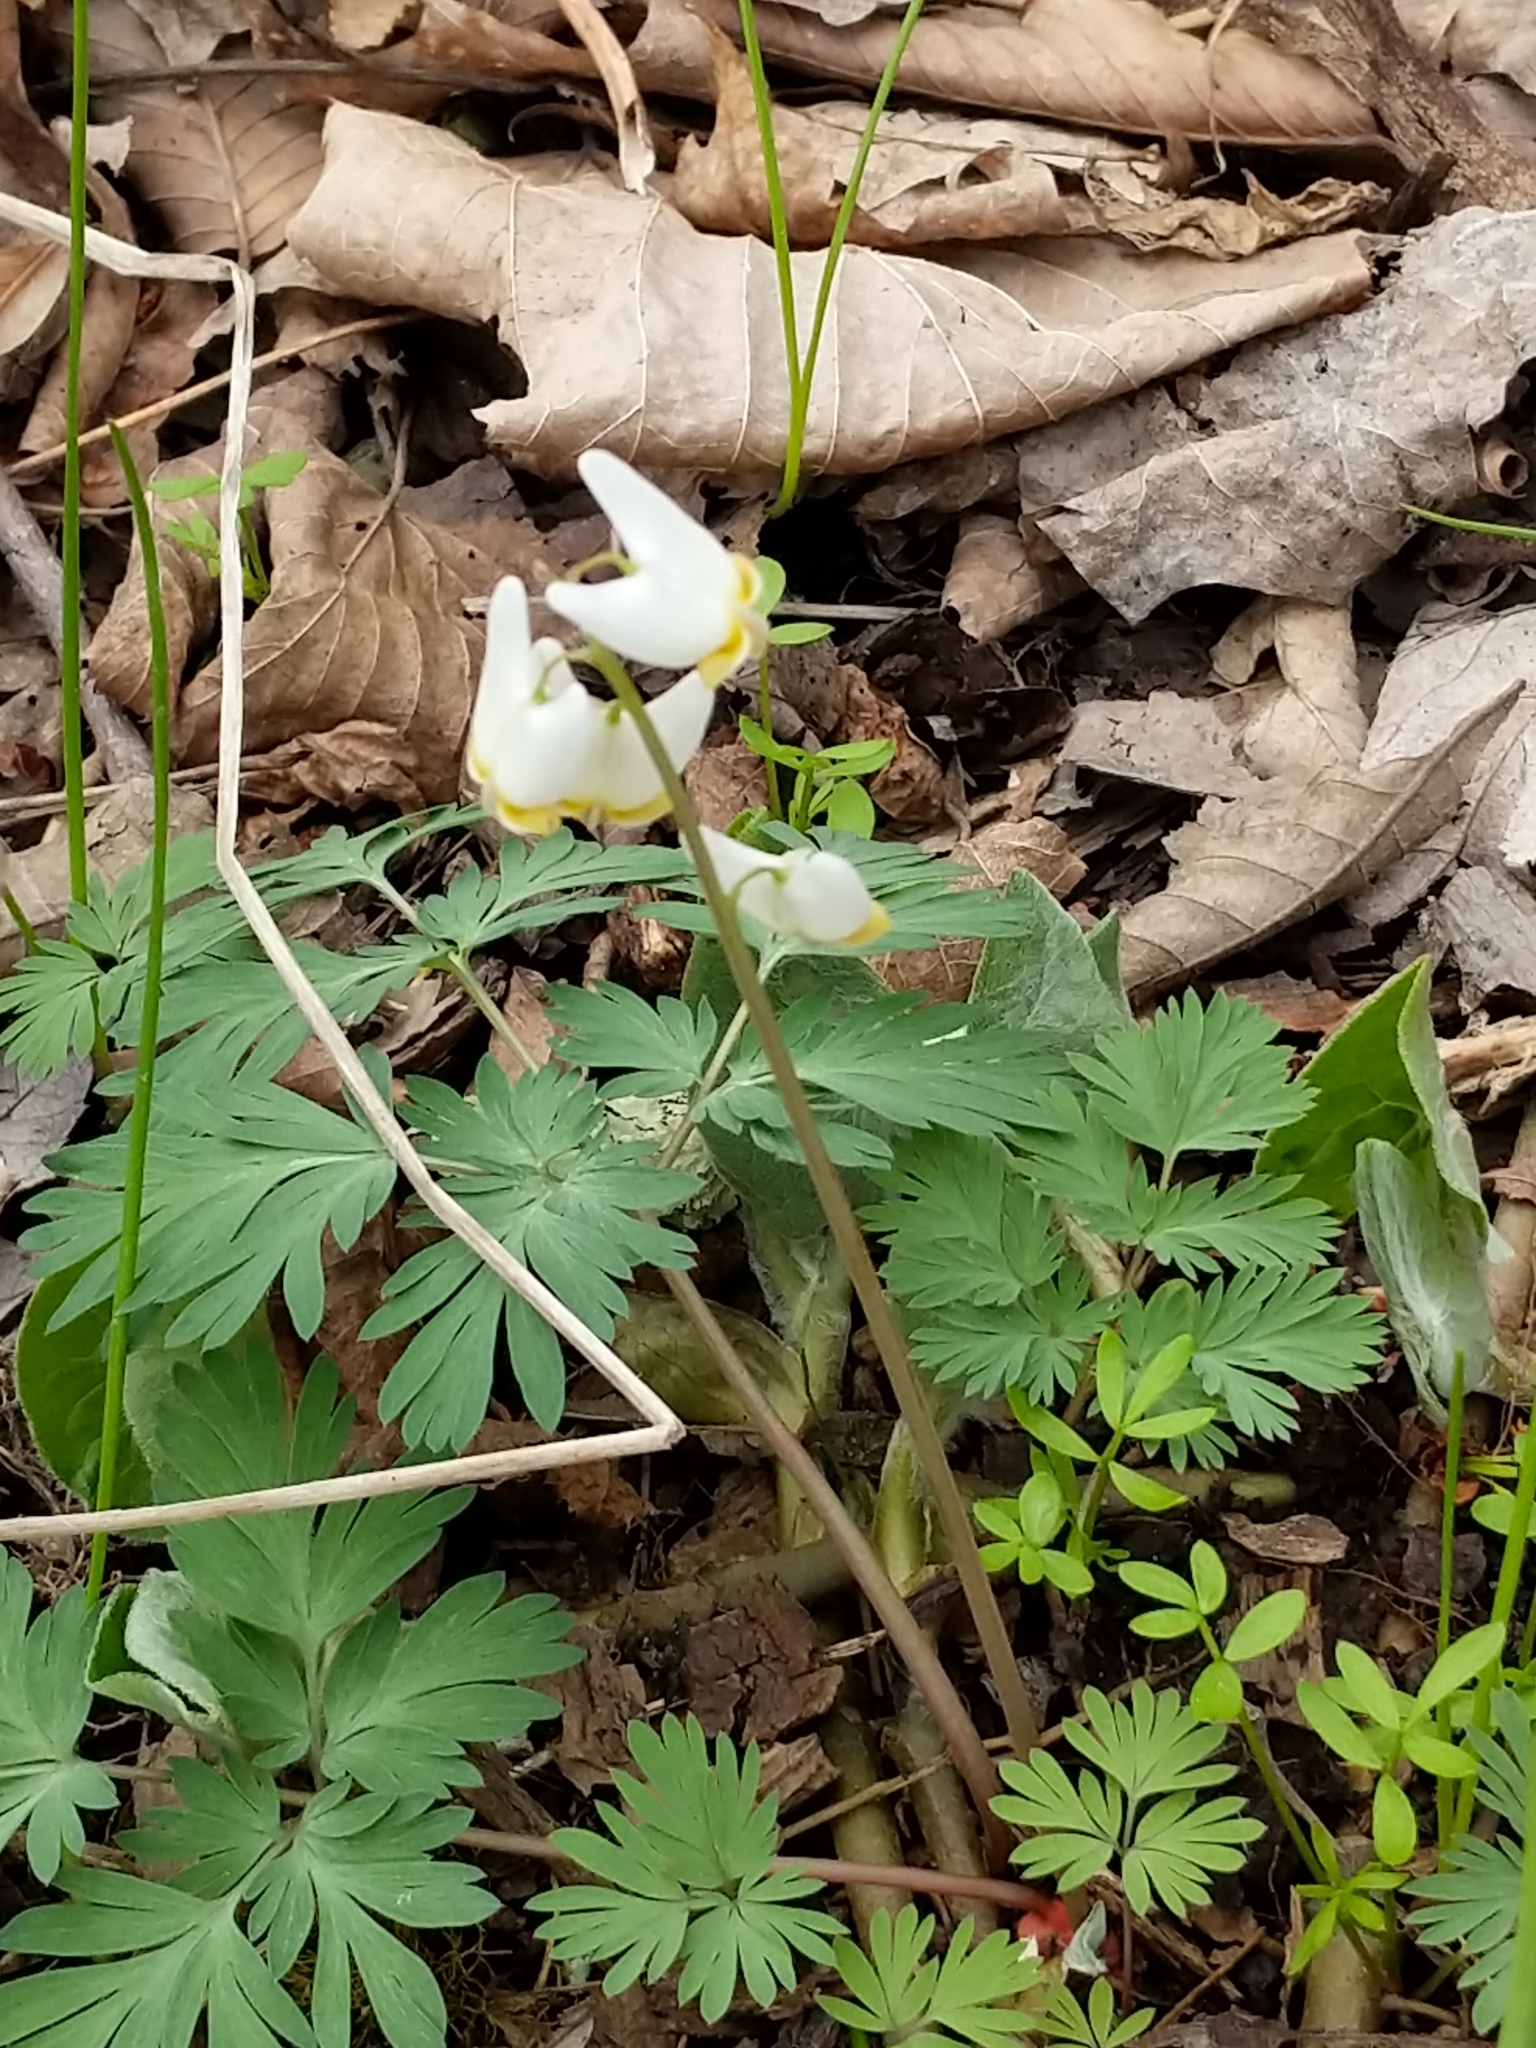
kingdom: Plantae
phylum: Tracheophyta
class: Magnoliopsida
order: Ranunculales
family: Papaveraceae
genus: Dicentra
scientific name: Dicentra cucullaria
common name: Dutchman's breeches
